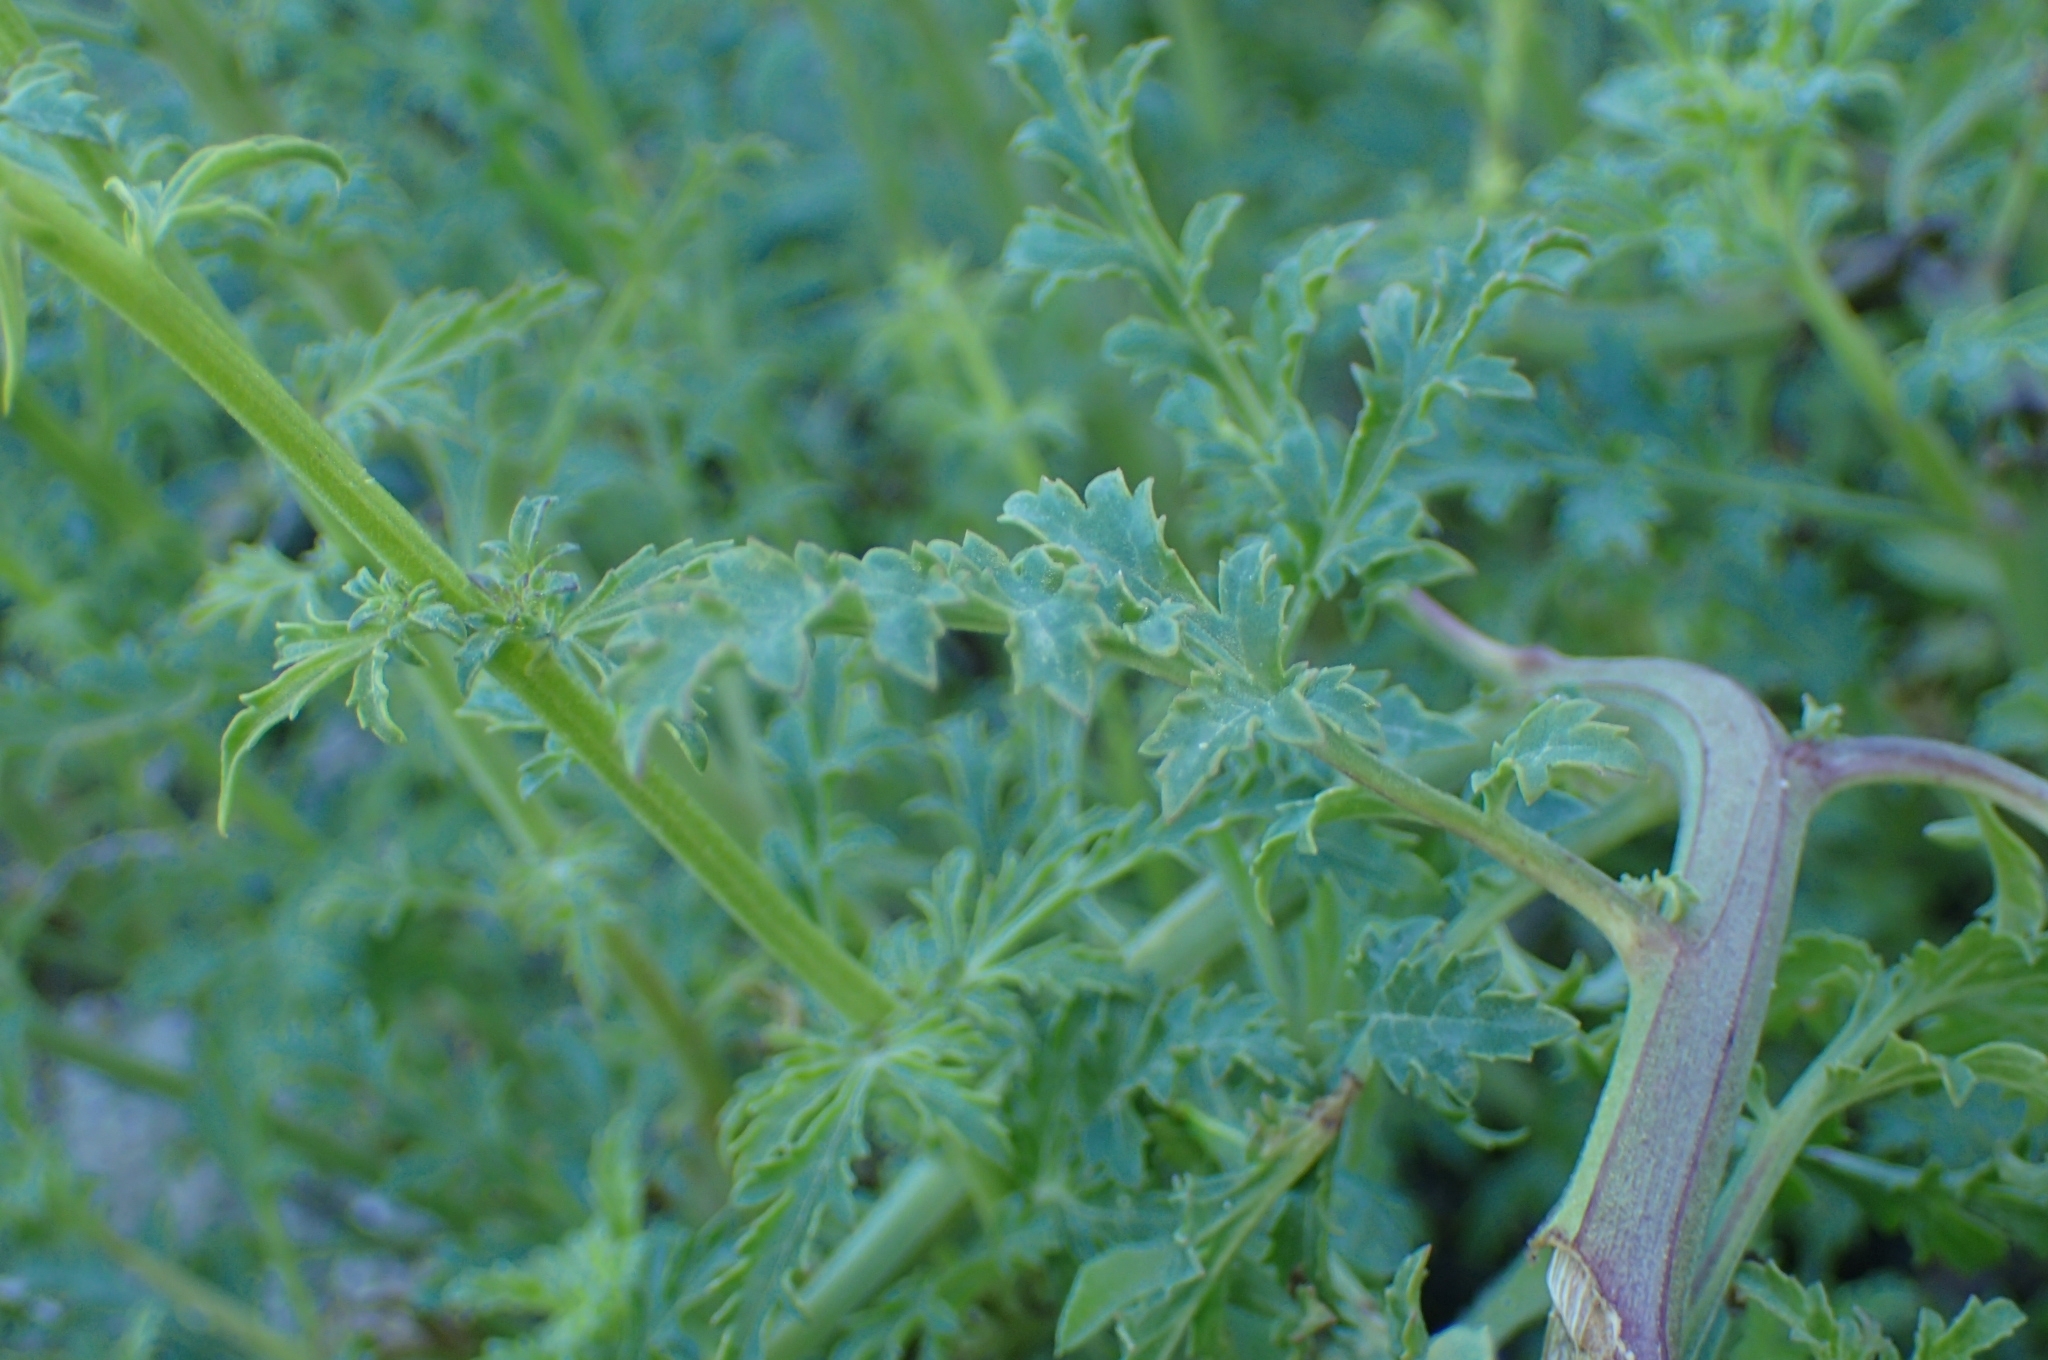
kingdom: Plantae
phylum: Tracheophyta
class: Magnoliopsida
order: Lamiales
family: Scrophulariaceae
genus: Scrophularia
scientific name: Scrophularia canina
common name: French figwort
